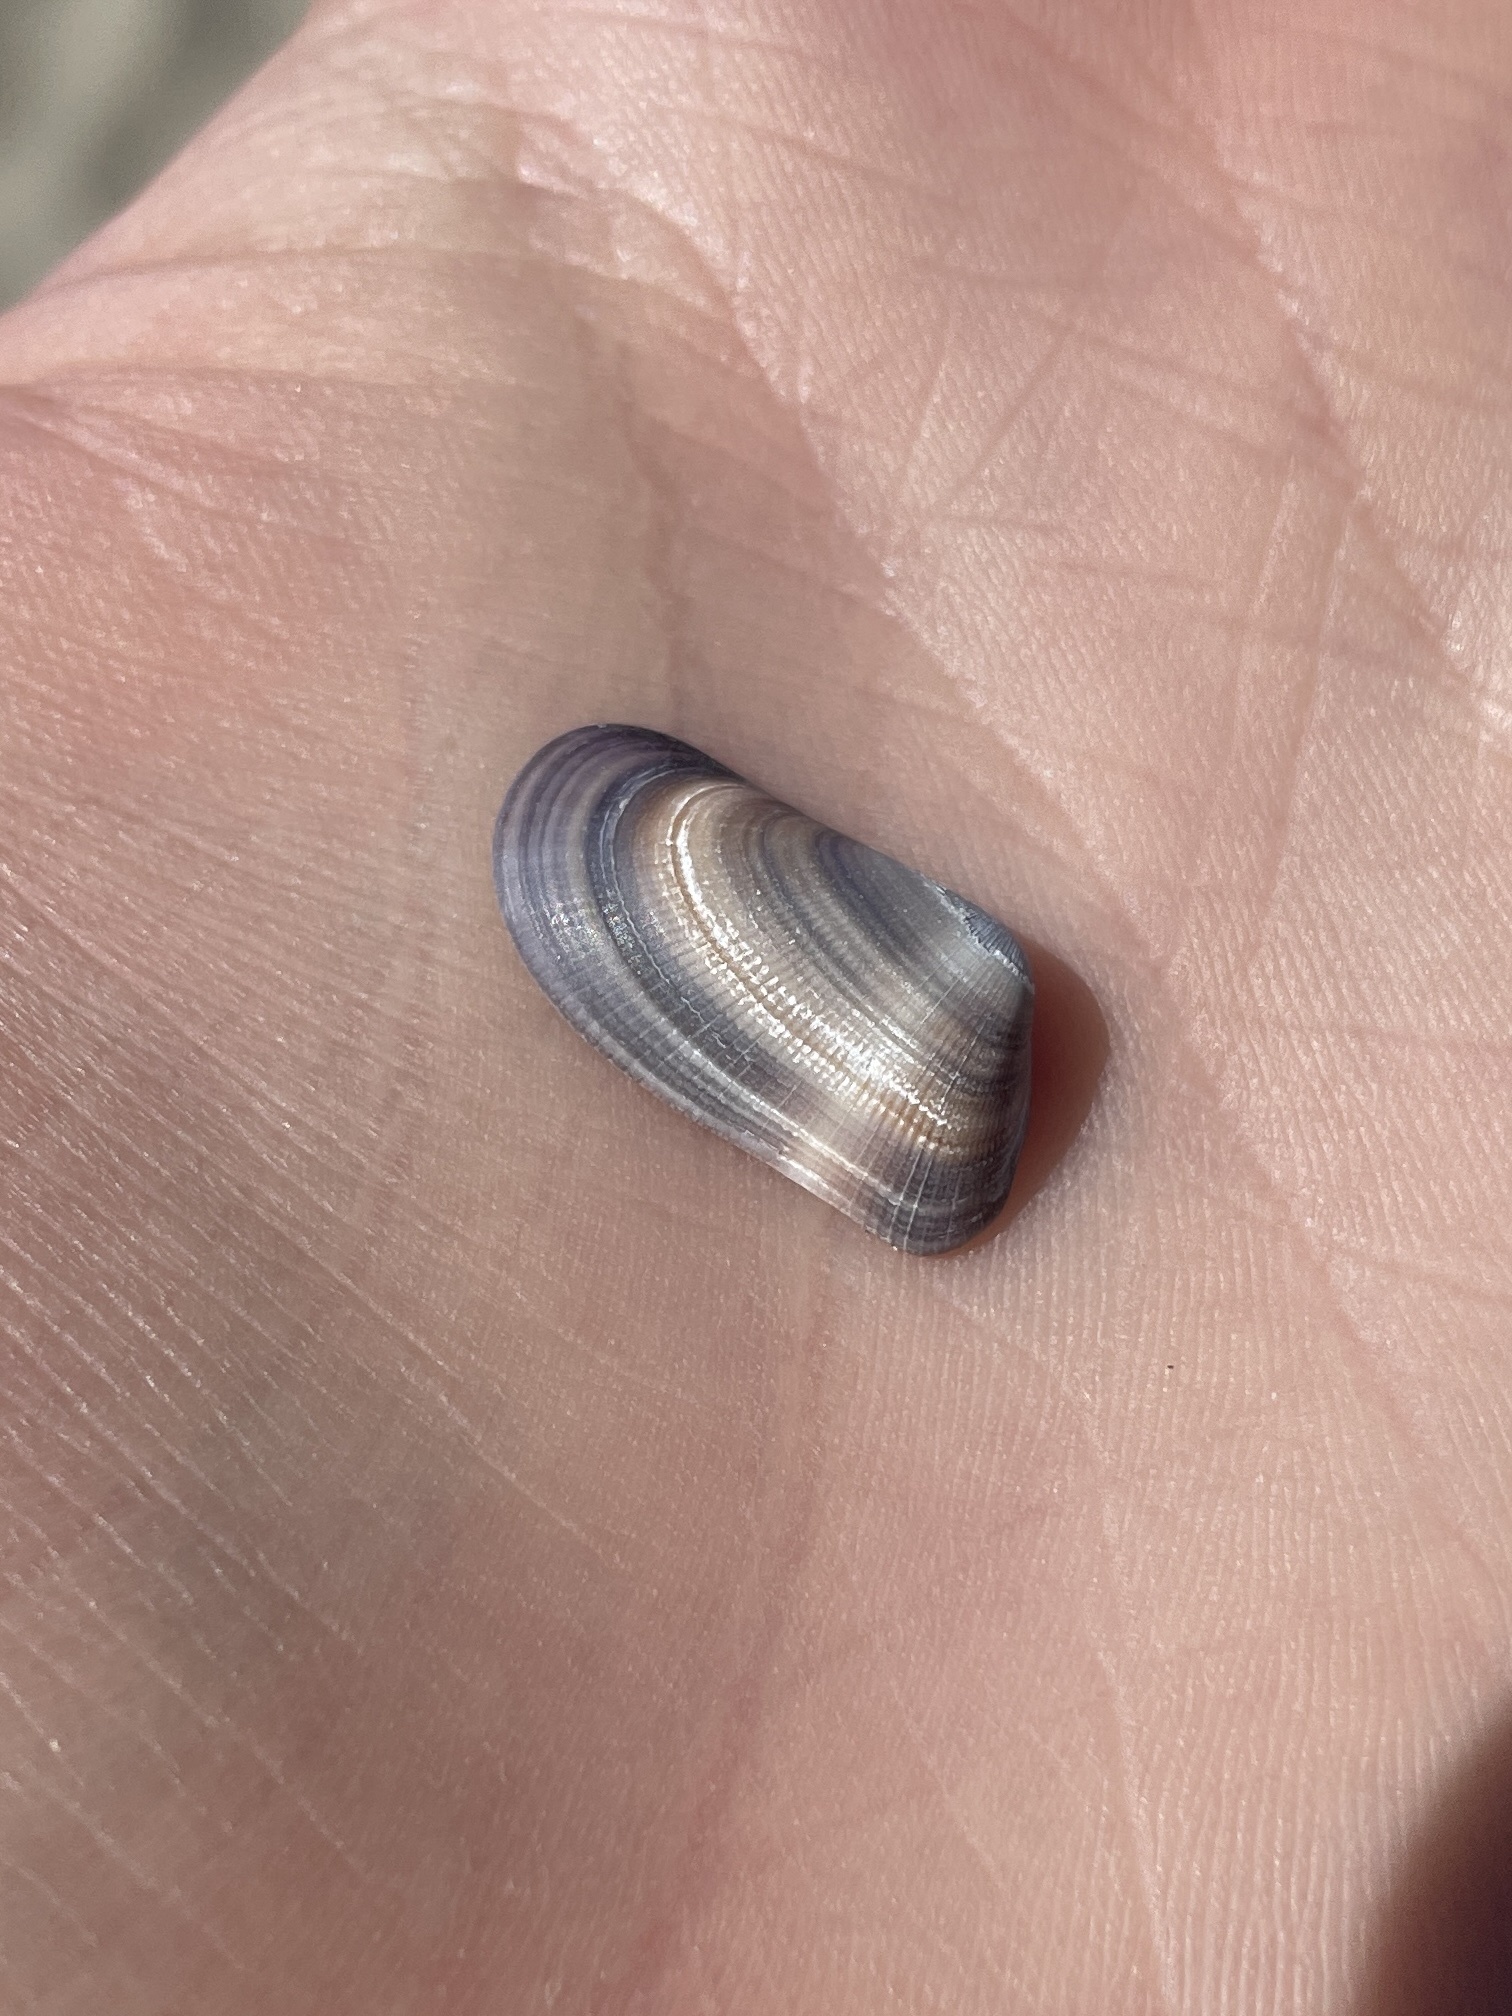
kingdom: Animalia
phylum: Mollusca
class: Bivalvia
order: Cardiida
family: Donacidae
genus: Donax
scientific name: Donax gouldii
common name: Gould beanclam
